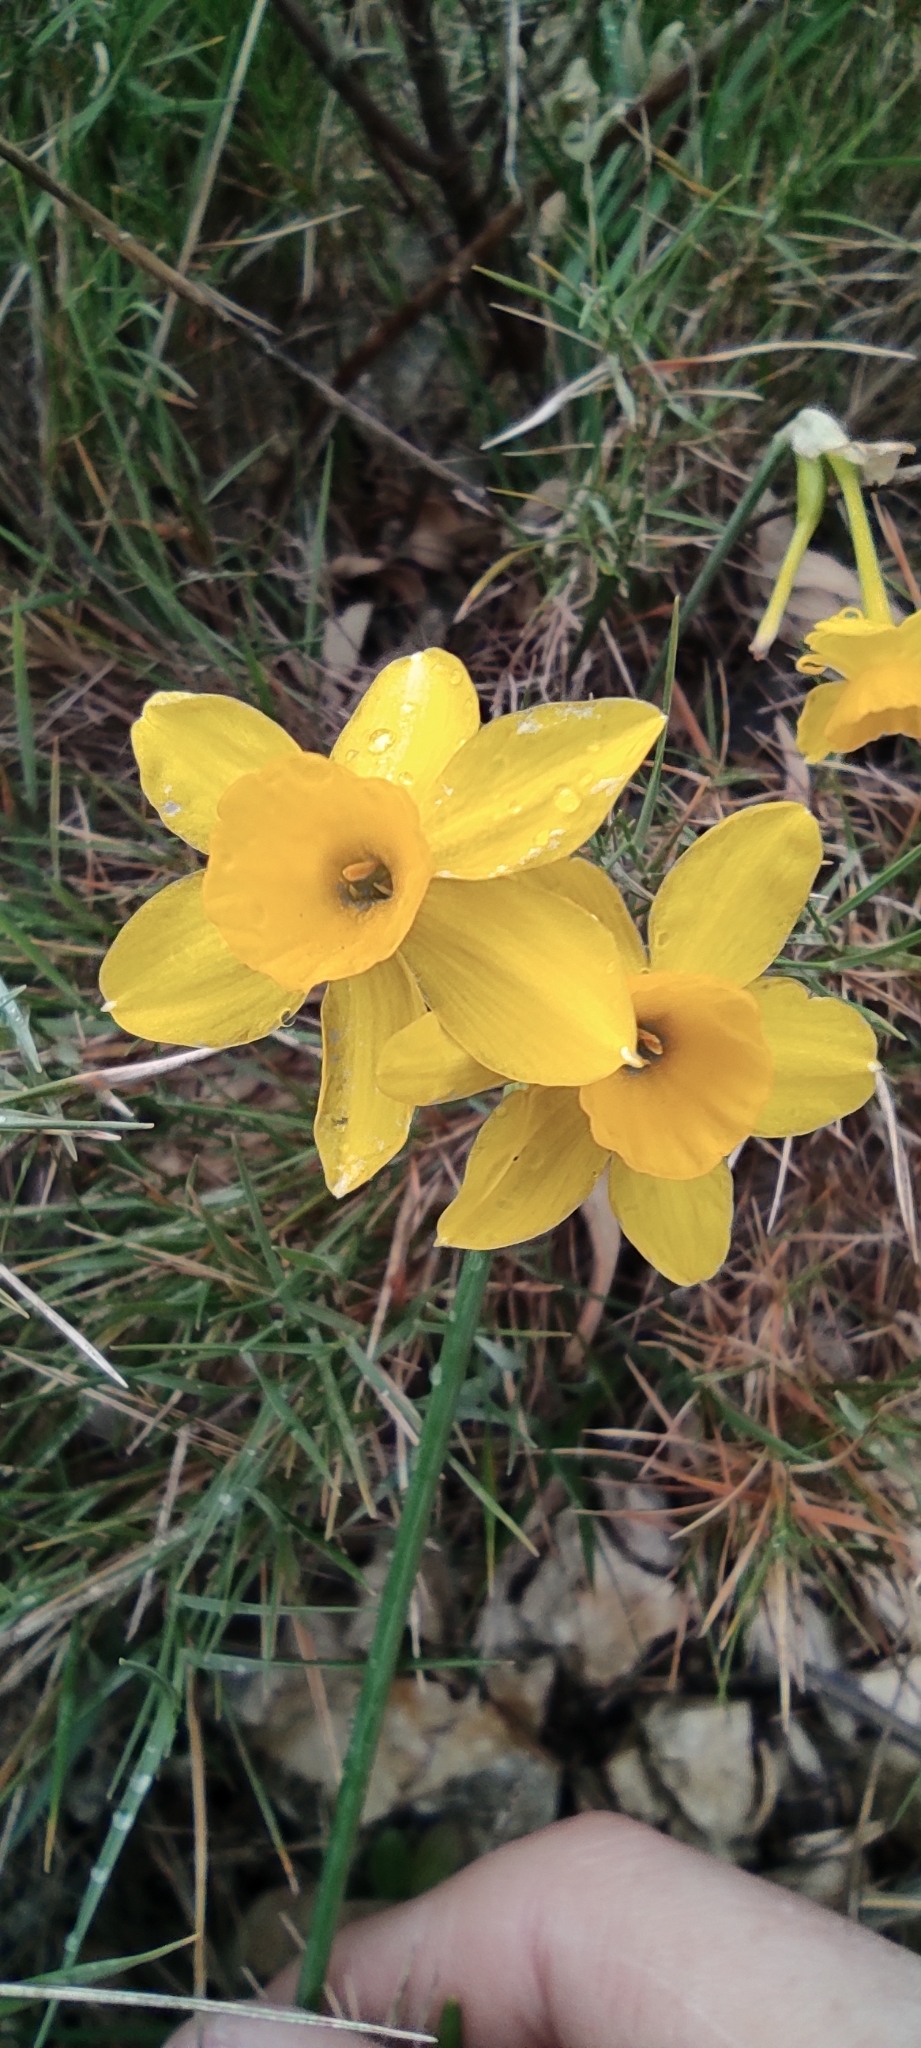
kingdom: Plantae
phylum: Tracheophyta
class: Liliopsida
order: Asparagales
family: Amaryllidaceae
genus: Narcissus
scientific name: Narcissus assoanus
